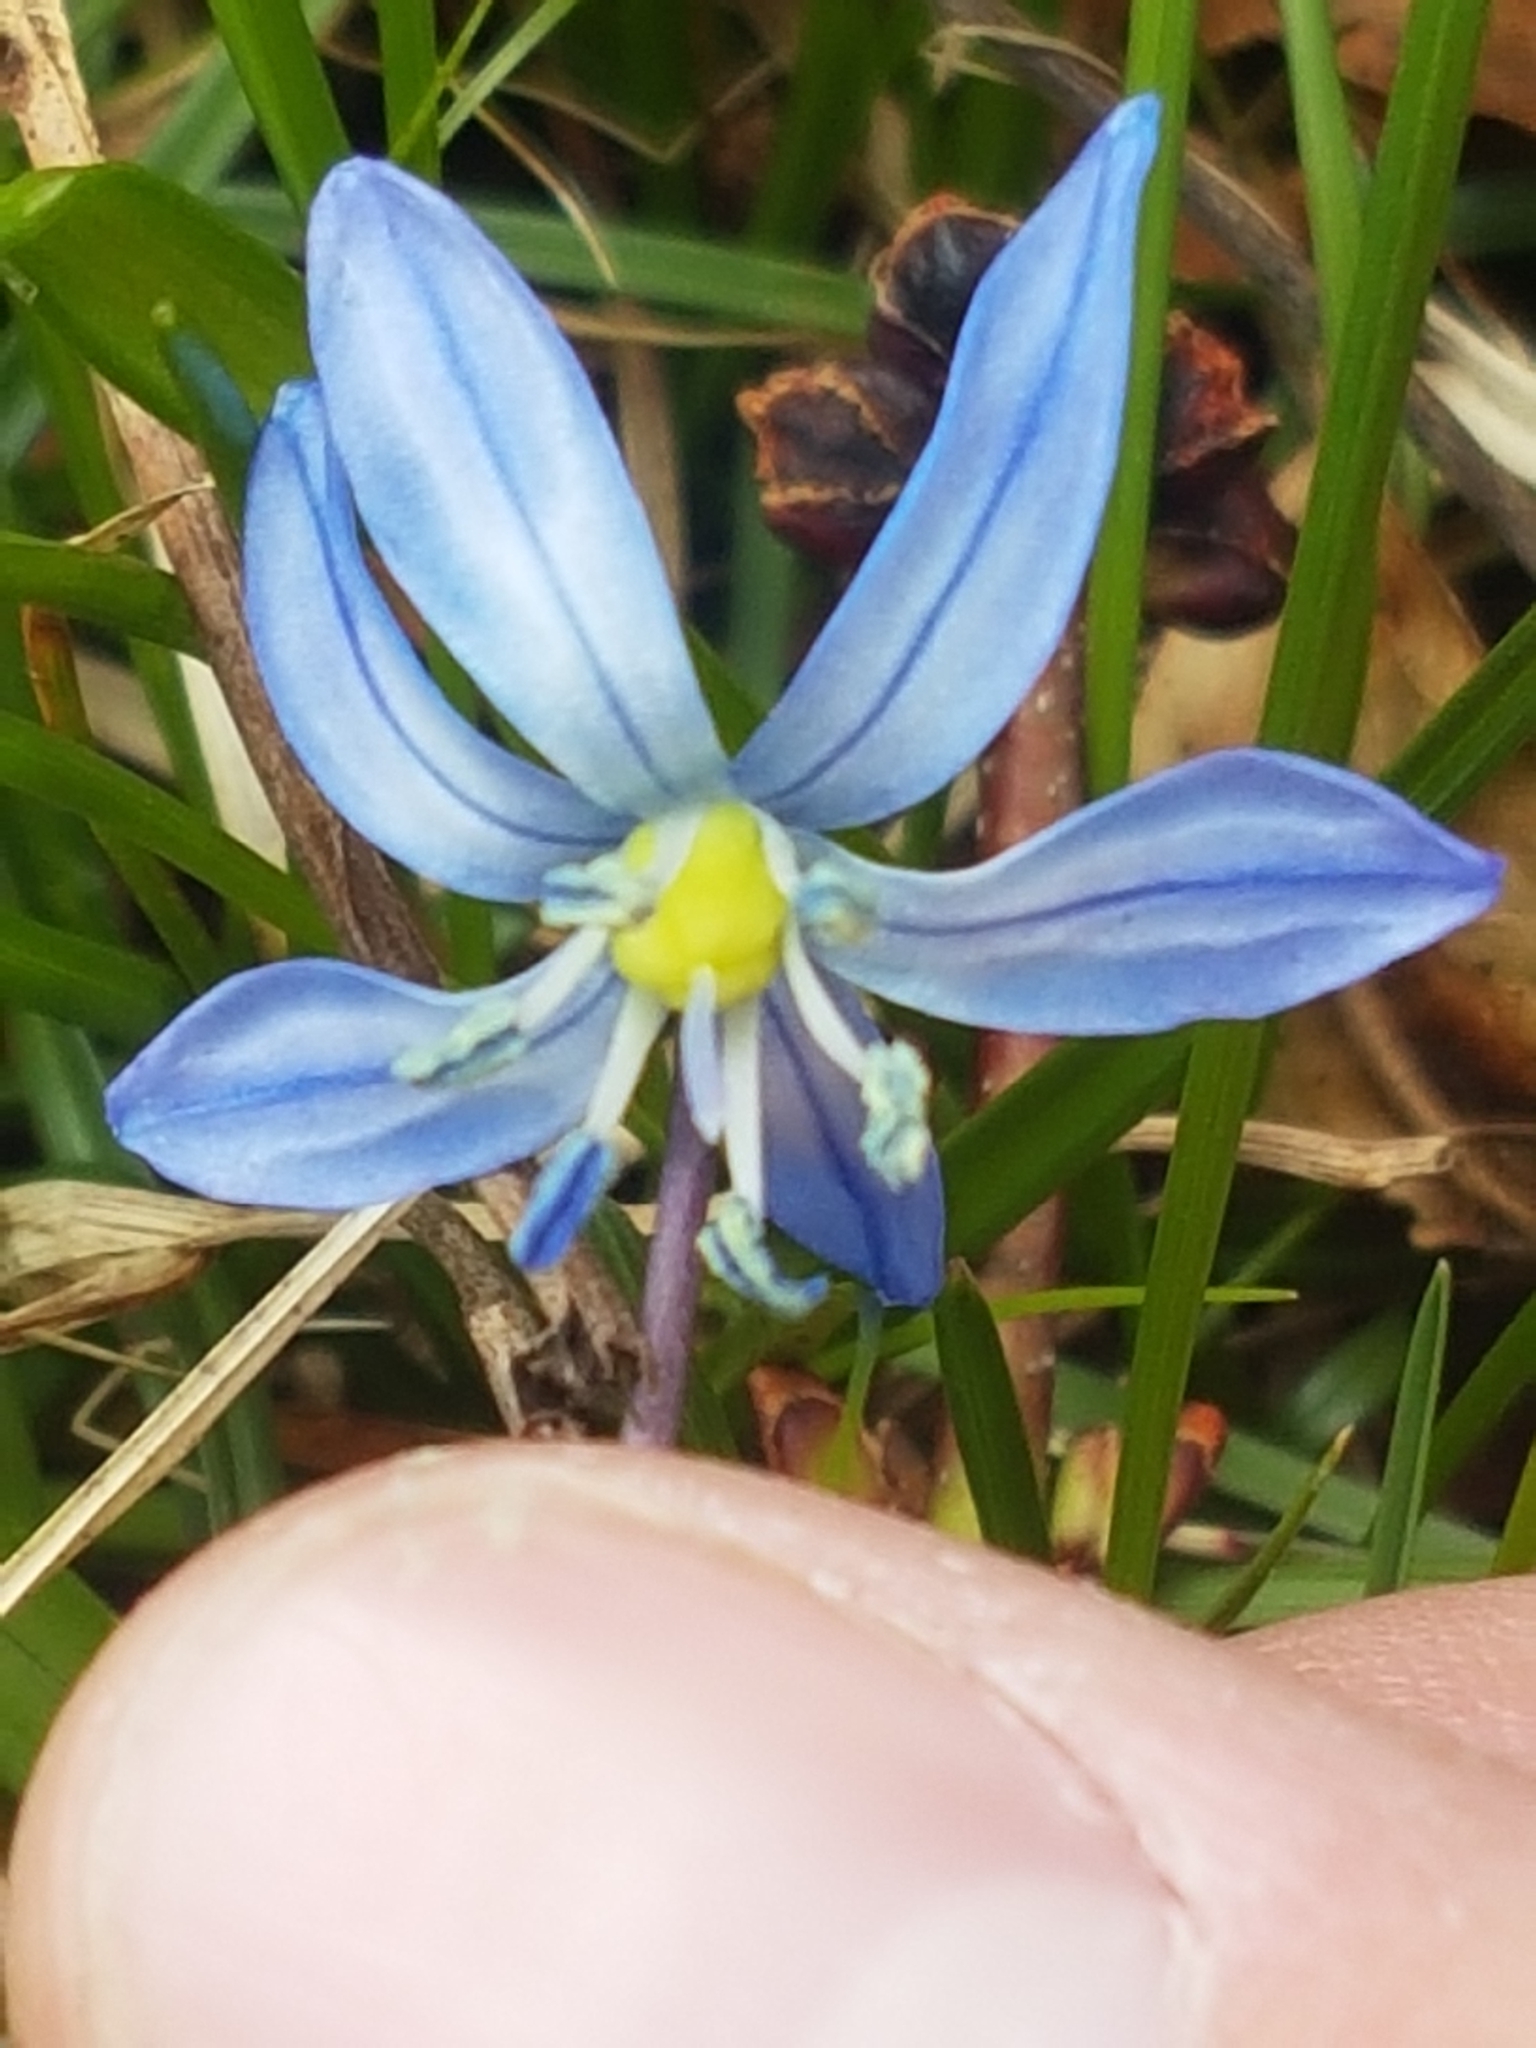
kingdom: Plantae
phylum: Tracheophyta
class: Liliopsida
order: Asparagales
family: Asparagaceae
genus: Scilla
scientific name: Scilla siberica
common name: Siberian squill
